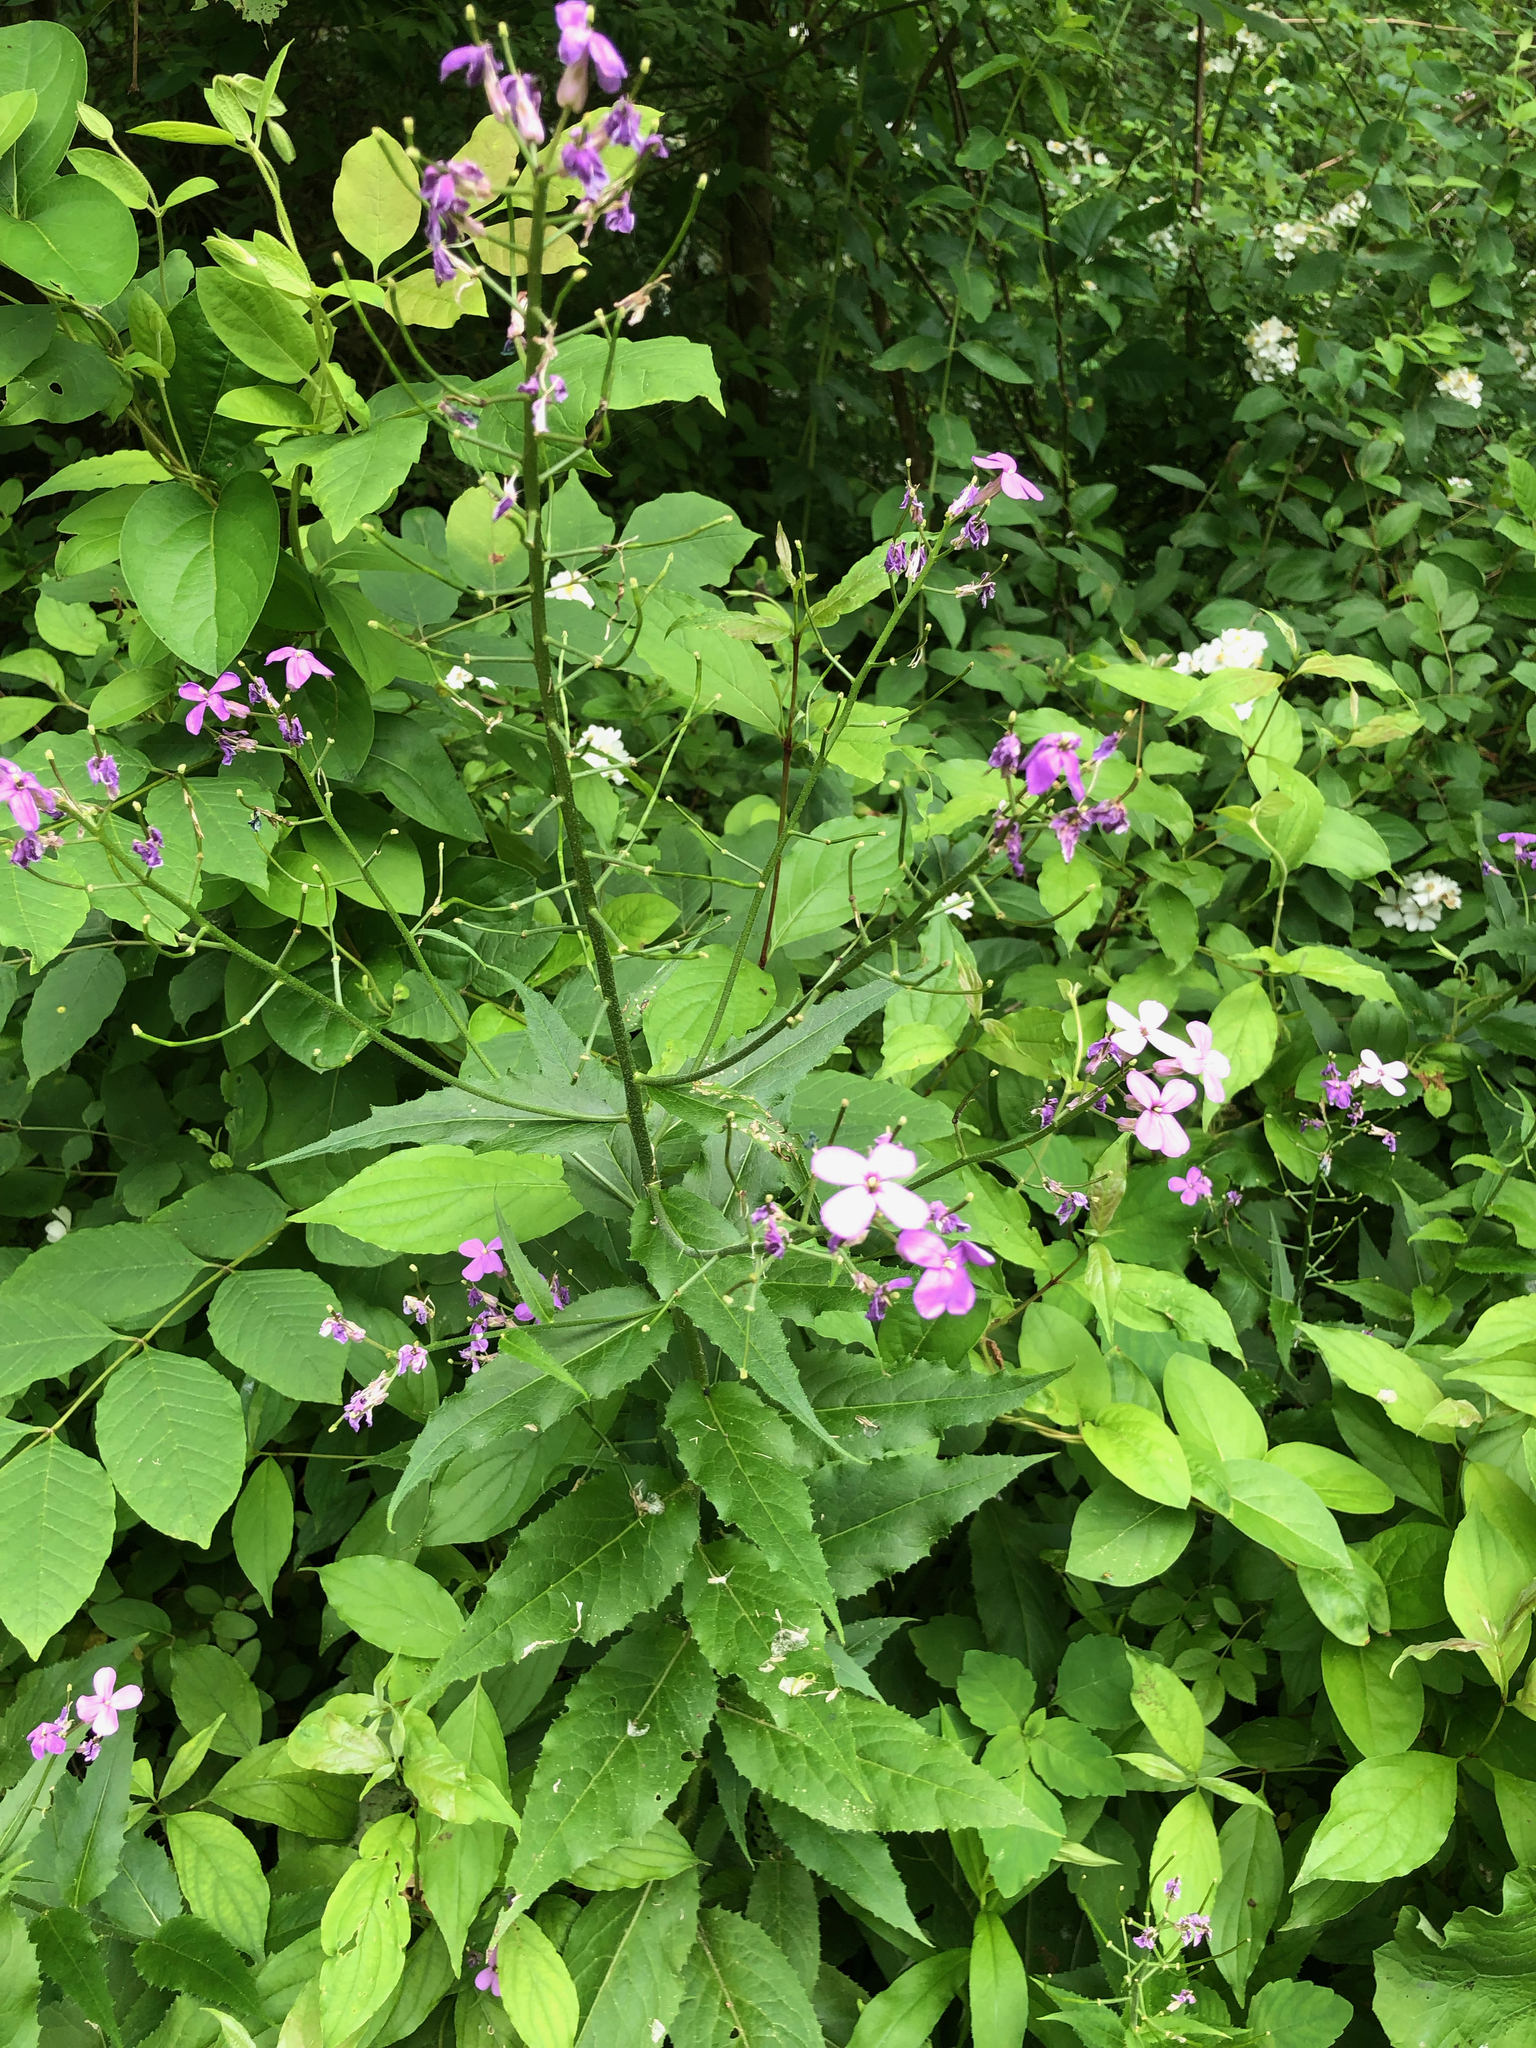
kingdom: Plantae
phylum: Tracheophyta
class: Magnoliopsida
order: Brassicales
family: Brassicaceae
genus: Hesperis
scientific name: Hesperis matronalis
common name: Dame's-violet
